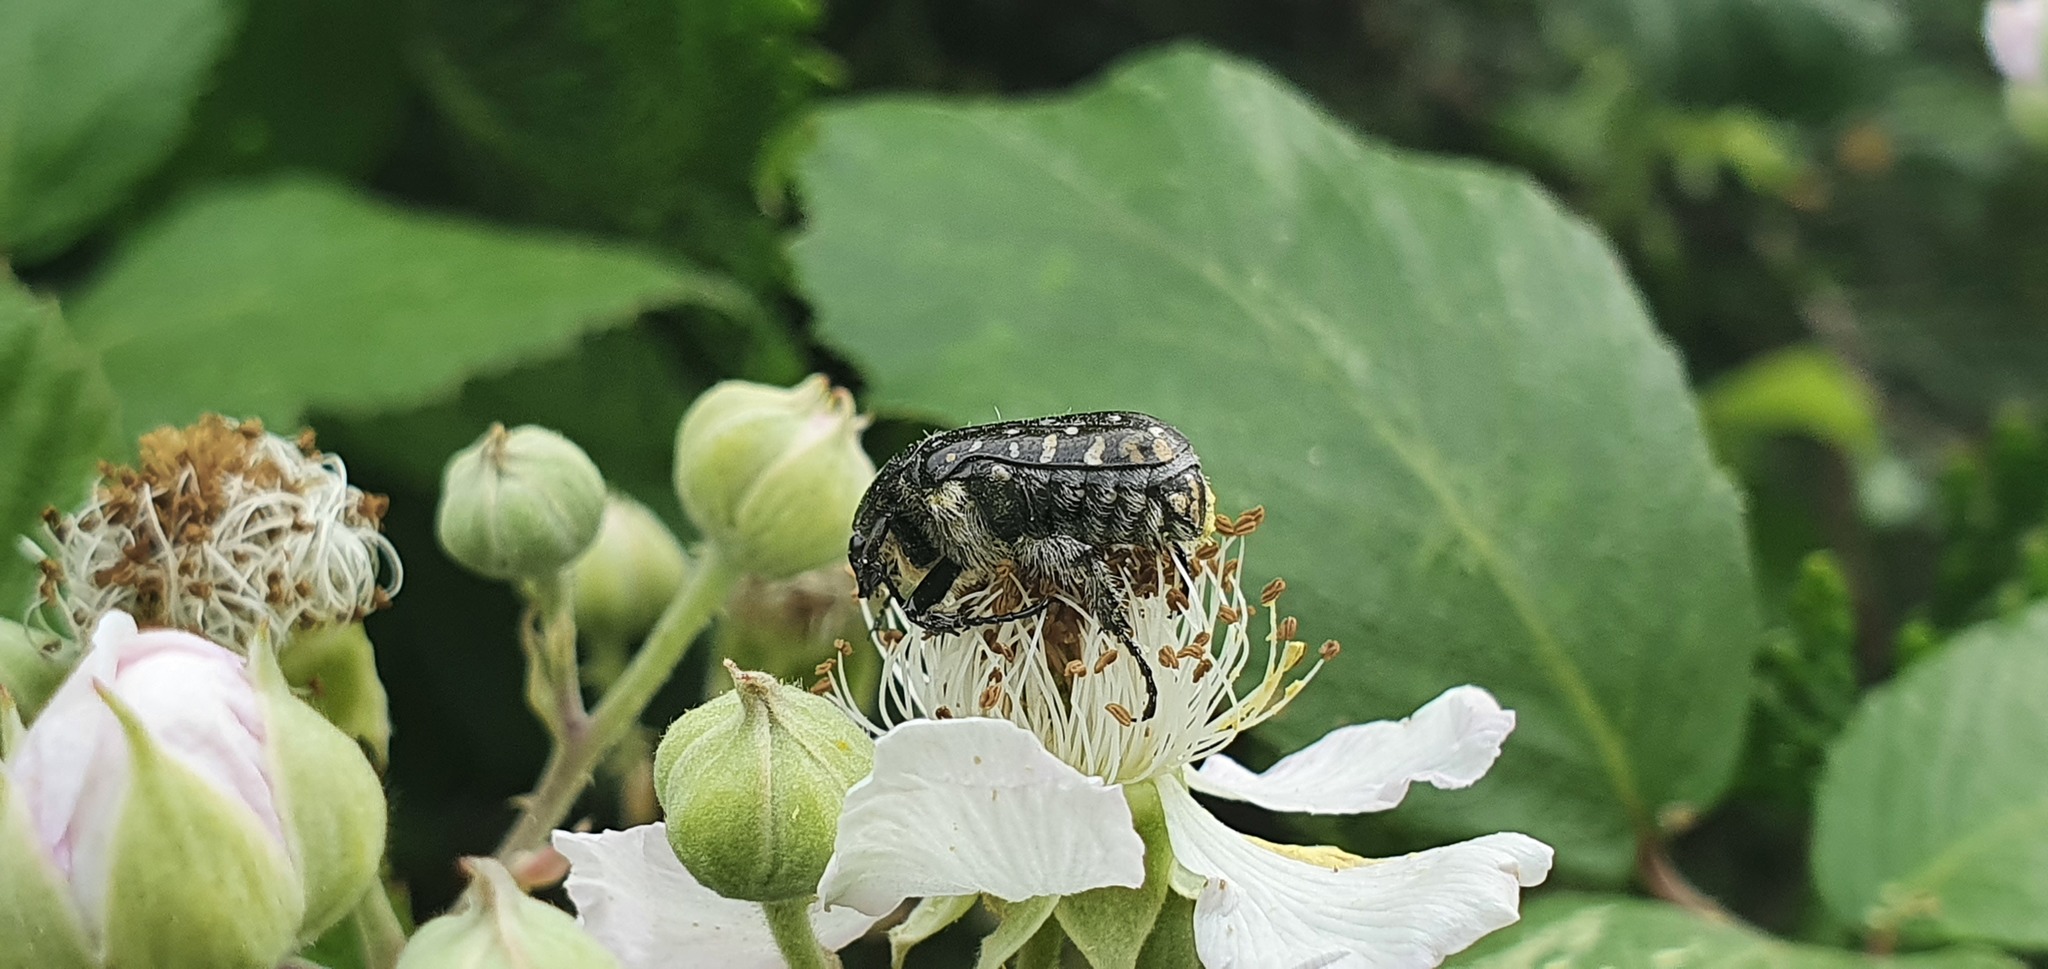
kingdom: Animalia
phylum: Arthropoda
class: Insecta
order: Coleoptera
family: Scarabaeidae
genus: Oxythyrea
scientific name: Oxythyrea funesta
